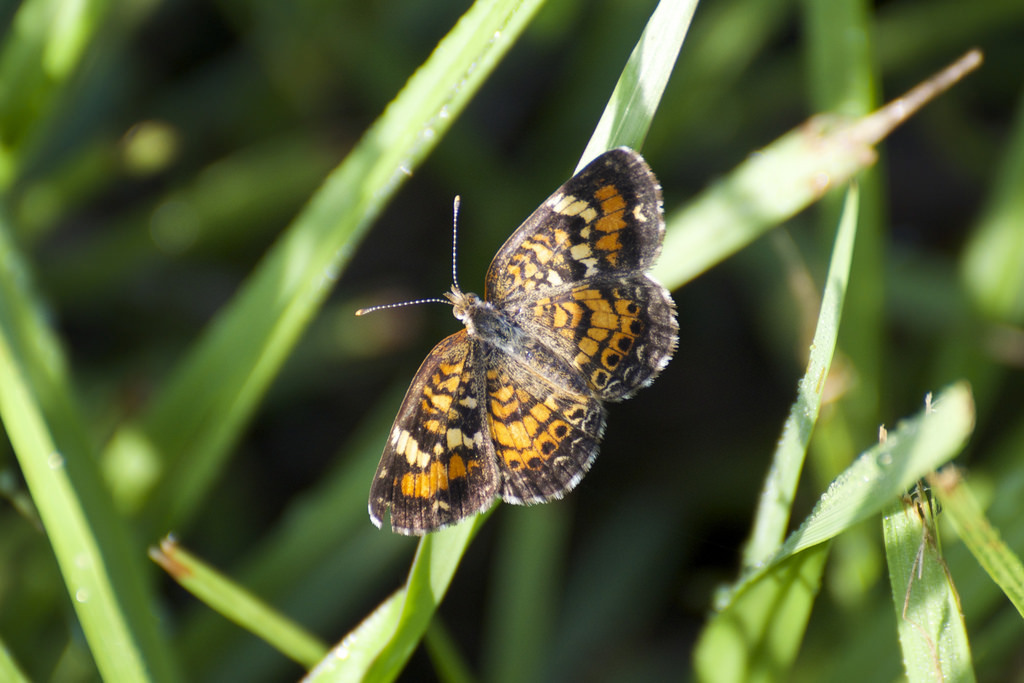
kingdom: Animalia
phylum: Arthropoda
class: Insecta
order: Lepidoptera
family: Nymphalidae
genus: Phyciodes
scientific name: Phyciodes phaon
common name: Phaon crescent
